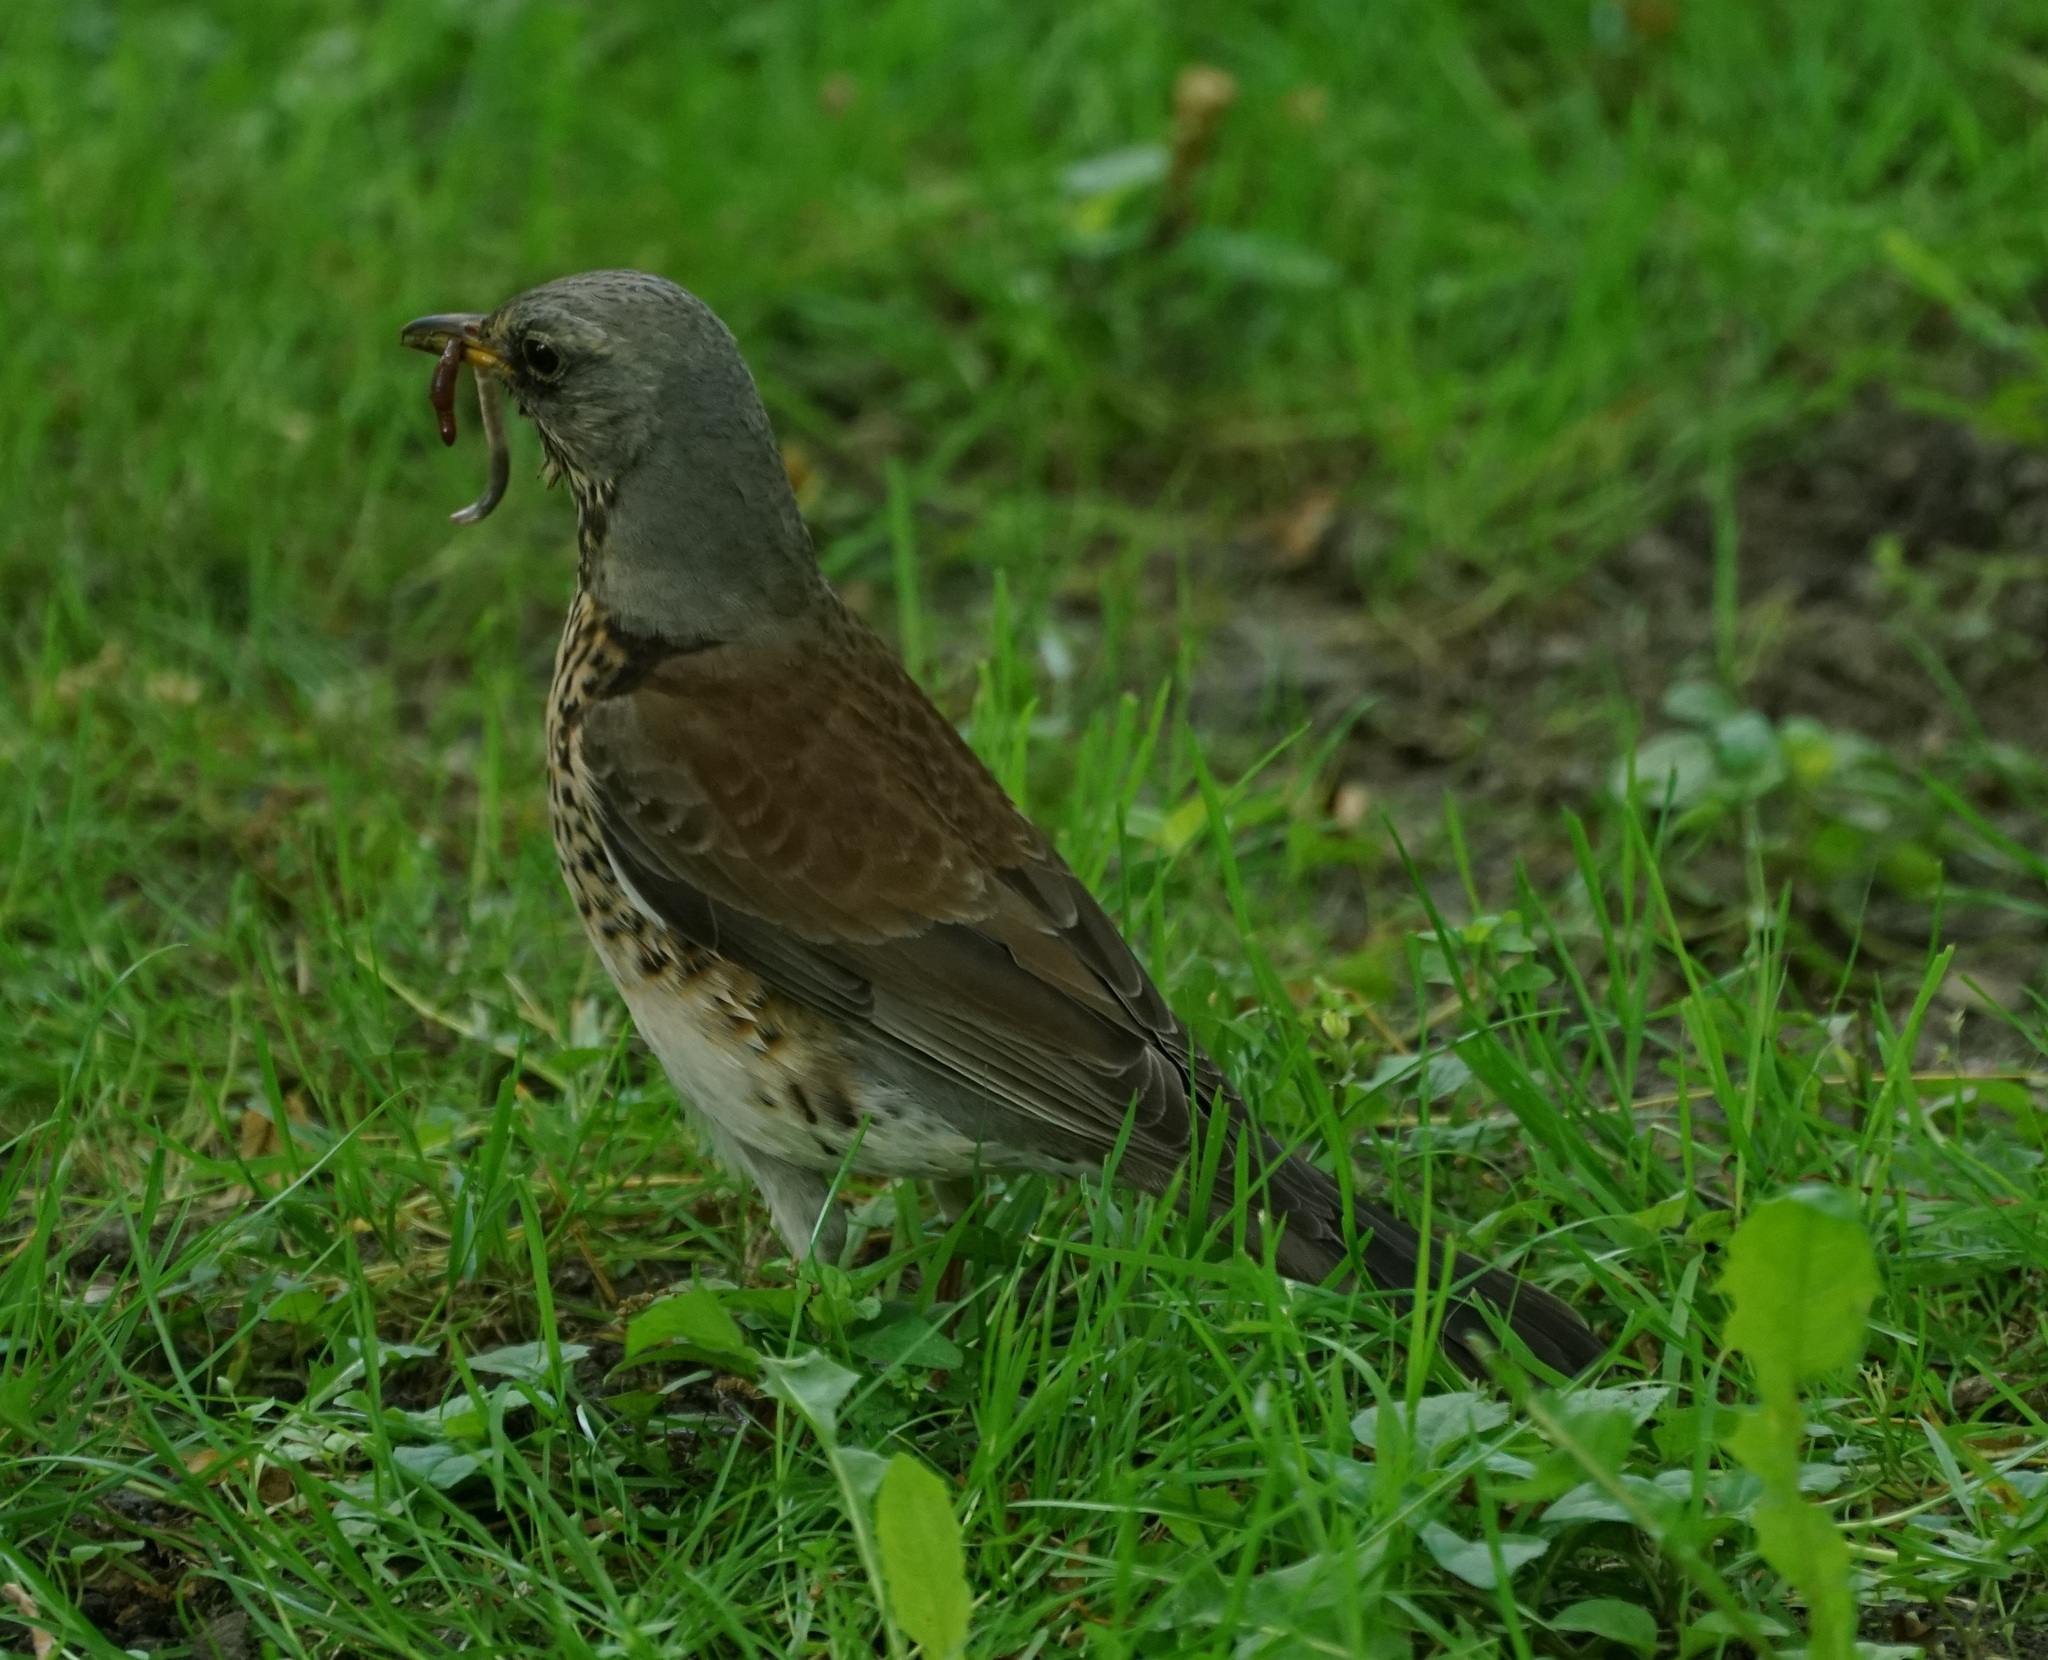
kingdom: Animalia
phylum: Chordata
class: Aves
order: Passeriformes
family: Turdidae
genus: Turdus
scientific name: Turdus pilaris
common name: Fieldfare
